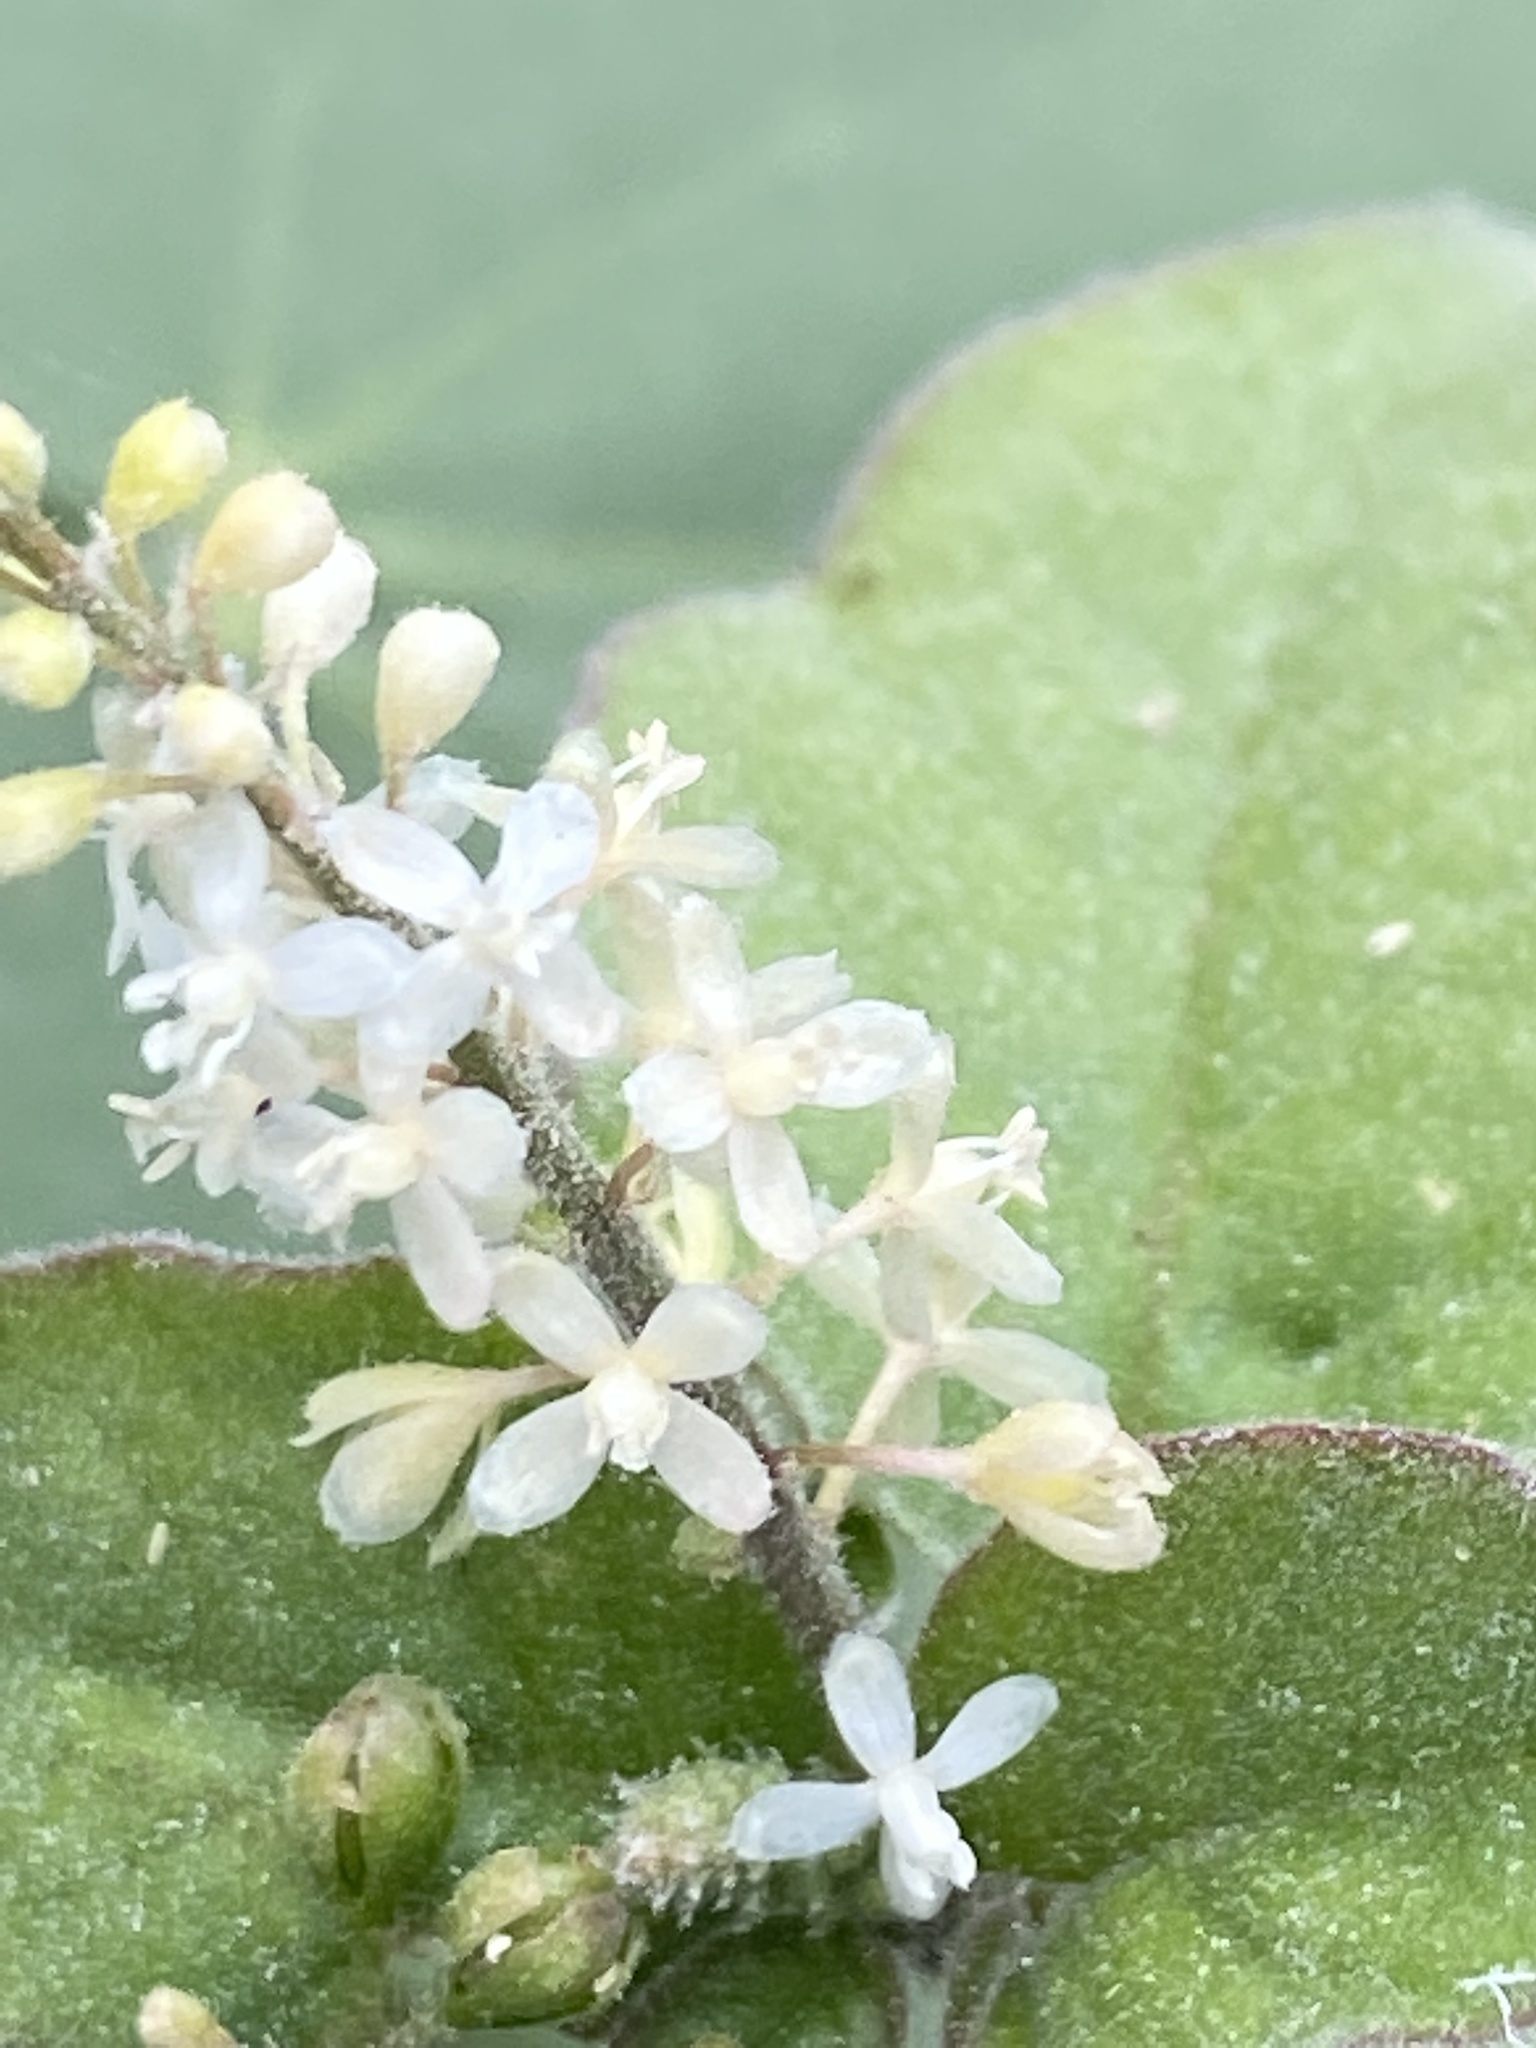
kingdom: Plantae
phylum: Tracheophyta
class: Magnoliopsida
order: Caryophyllales
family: Phytolaccaceae
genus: Rivina
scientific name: Rivina humilis
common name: Rougeplant
